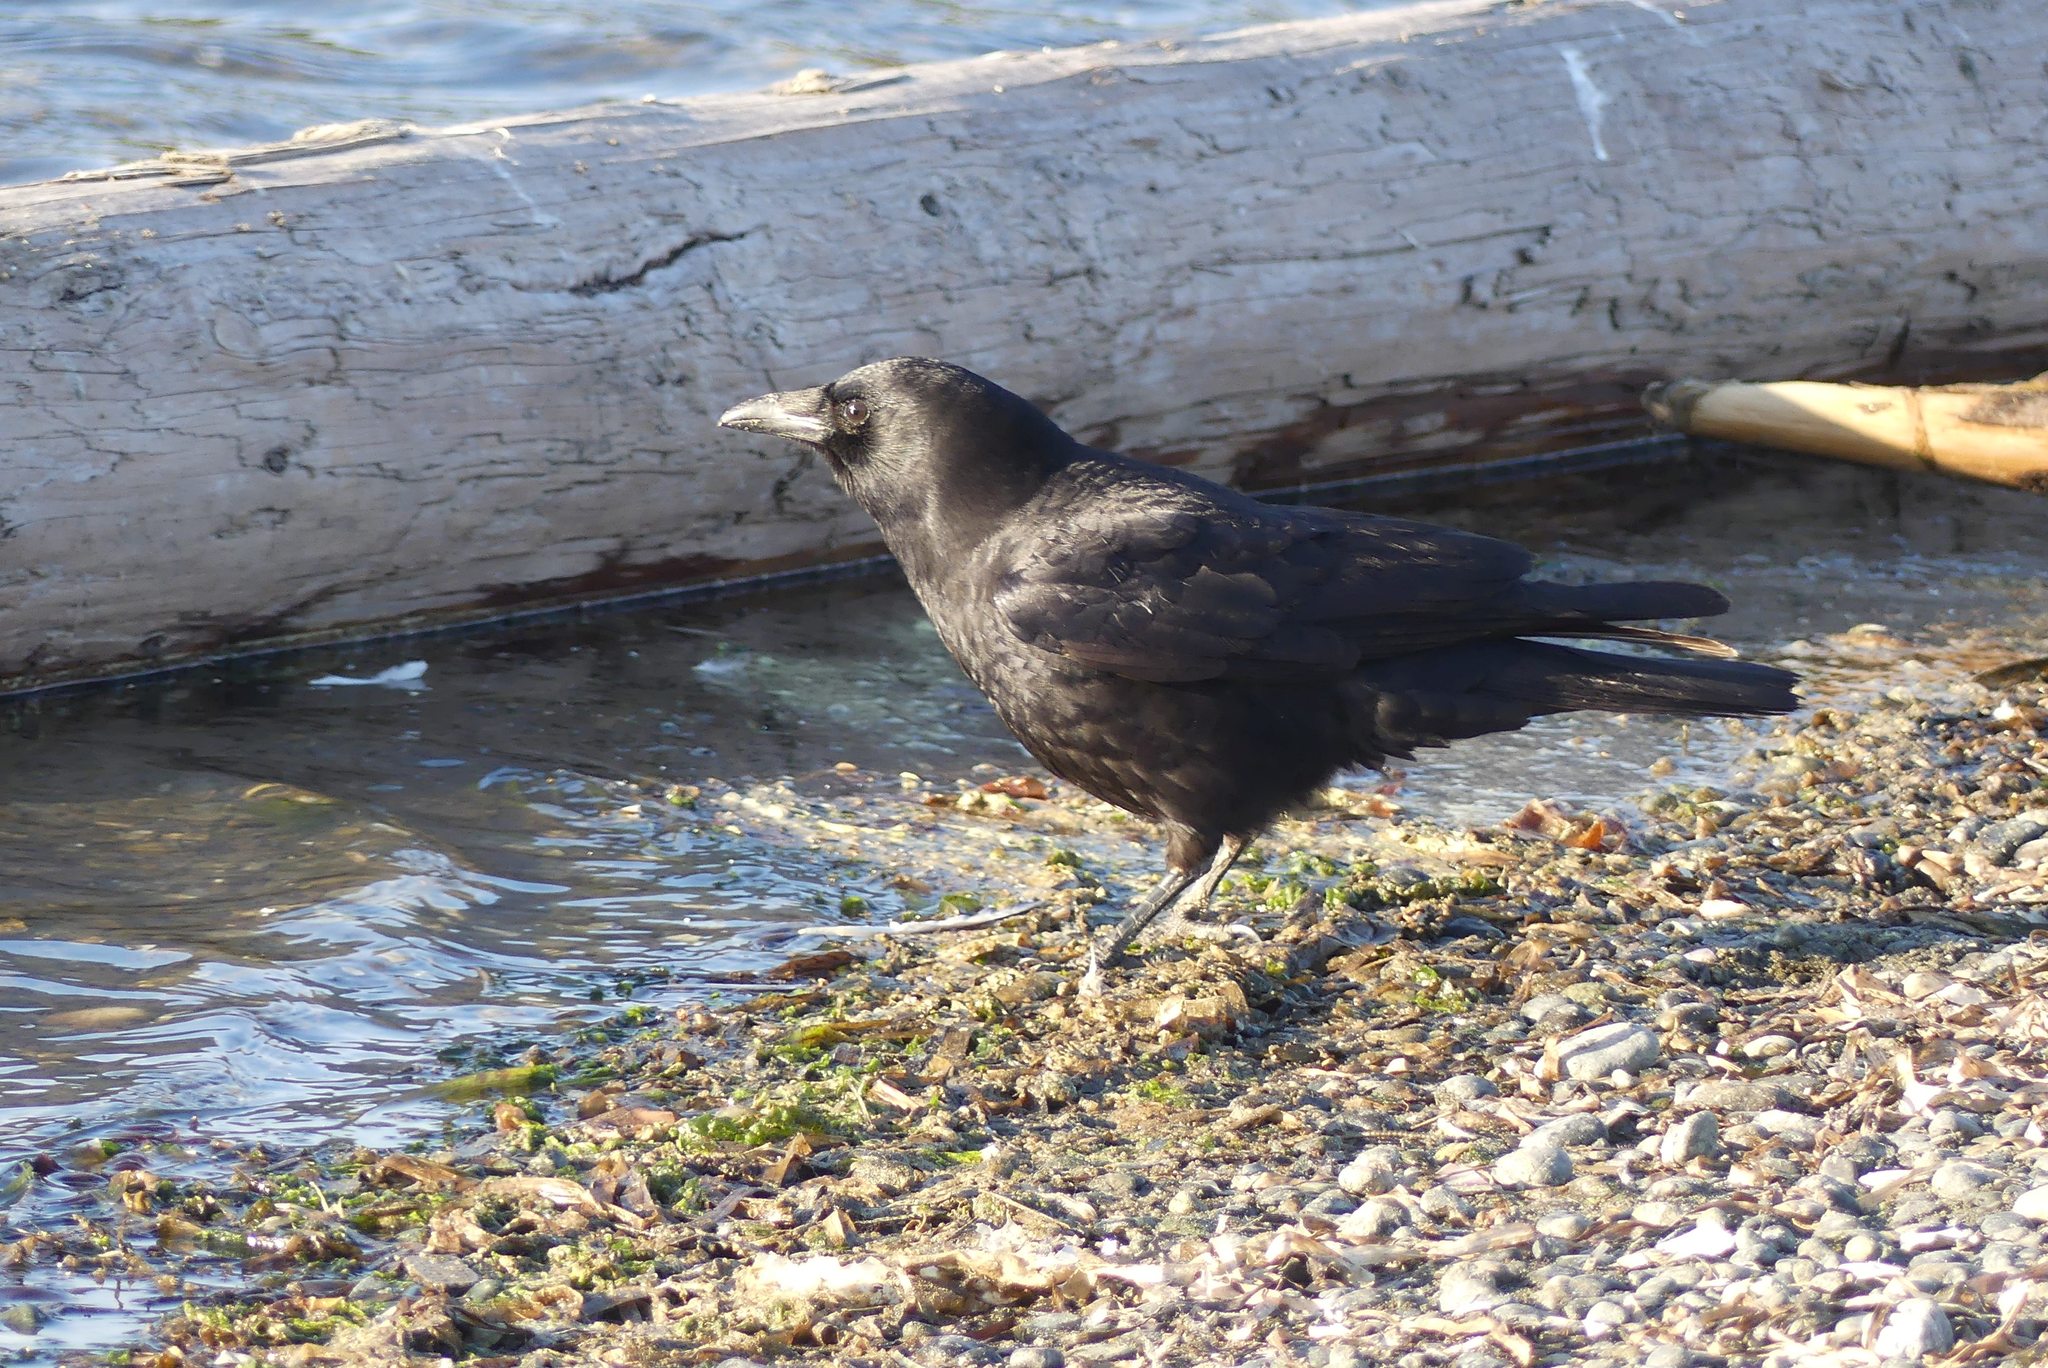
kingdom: Animalia
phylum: Chordata
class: Aves
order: Passeriformes
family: Corvidae
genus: Corvus
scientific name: Corvus brachyrhynchos
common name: American crow
